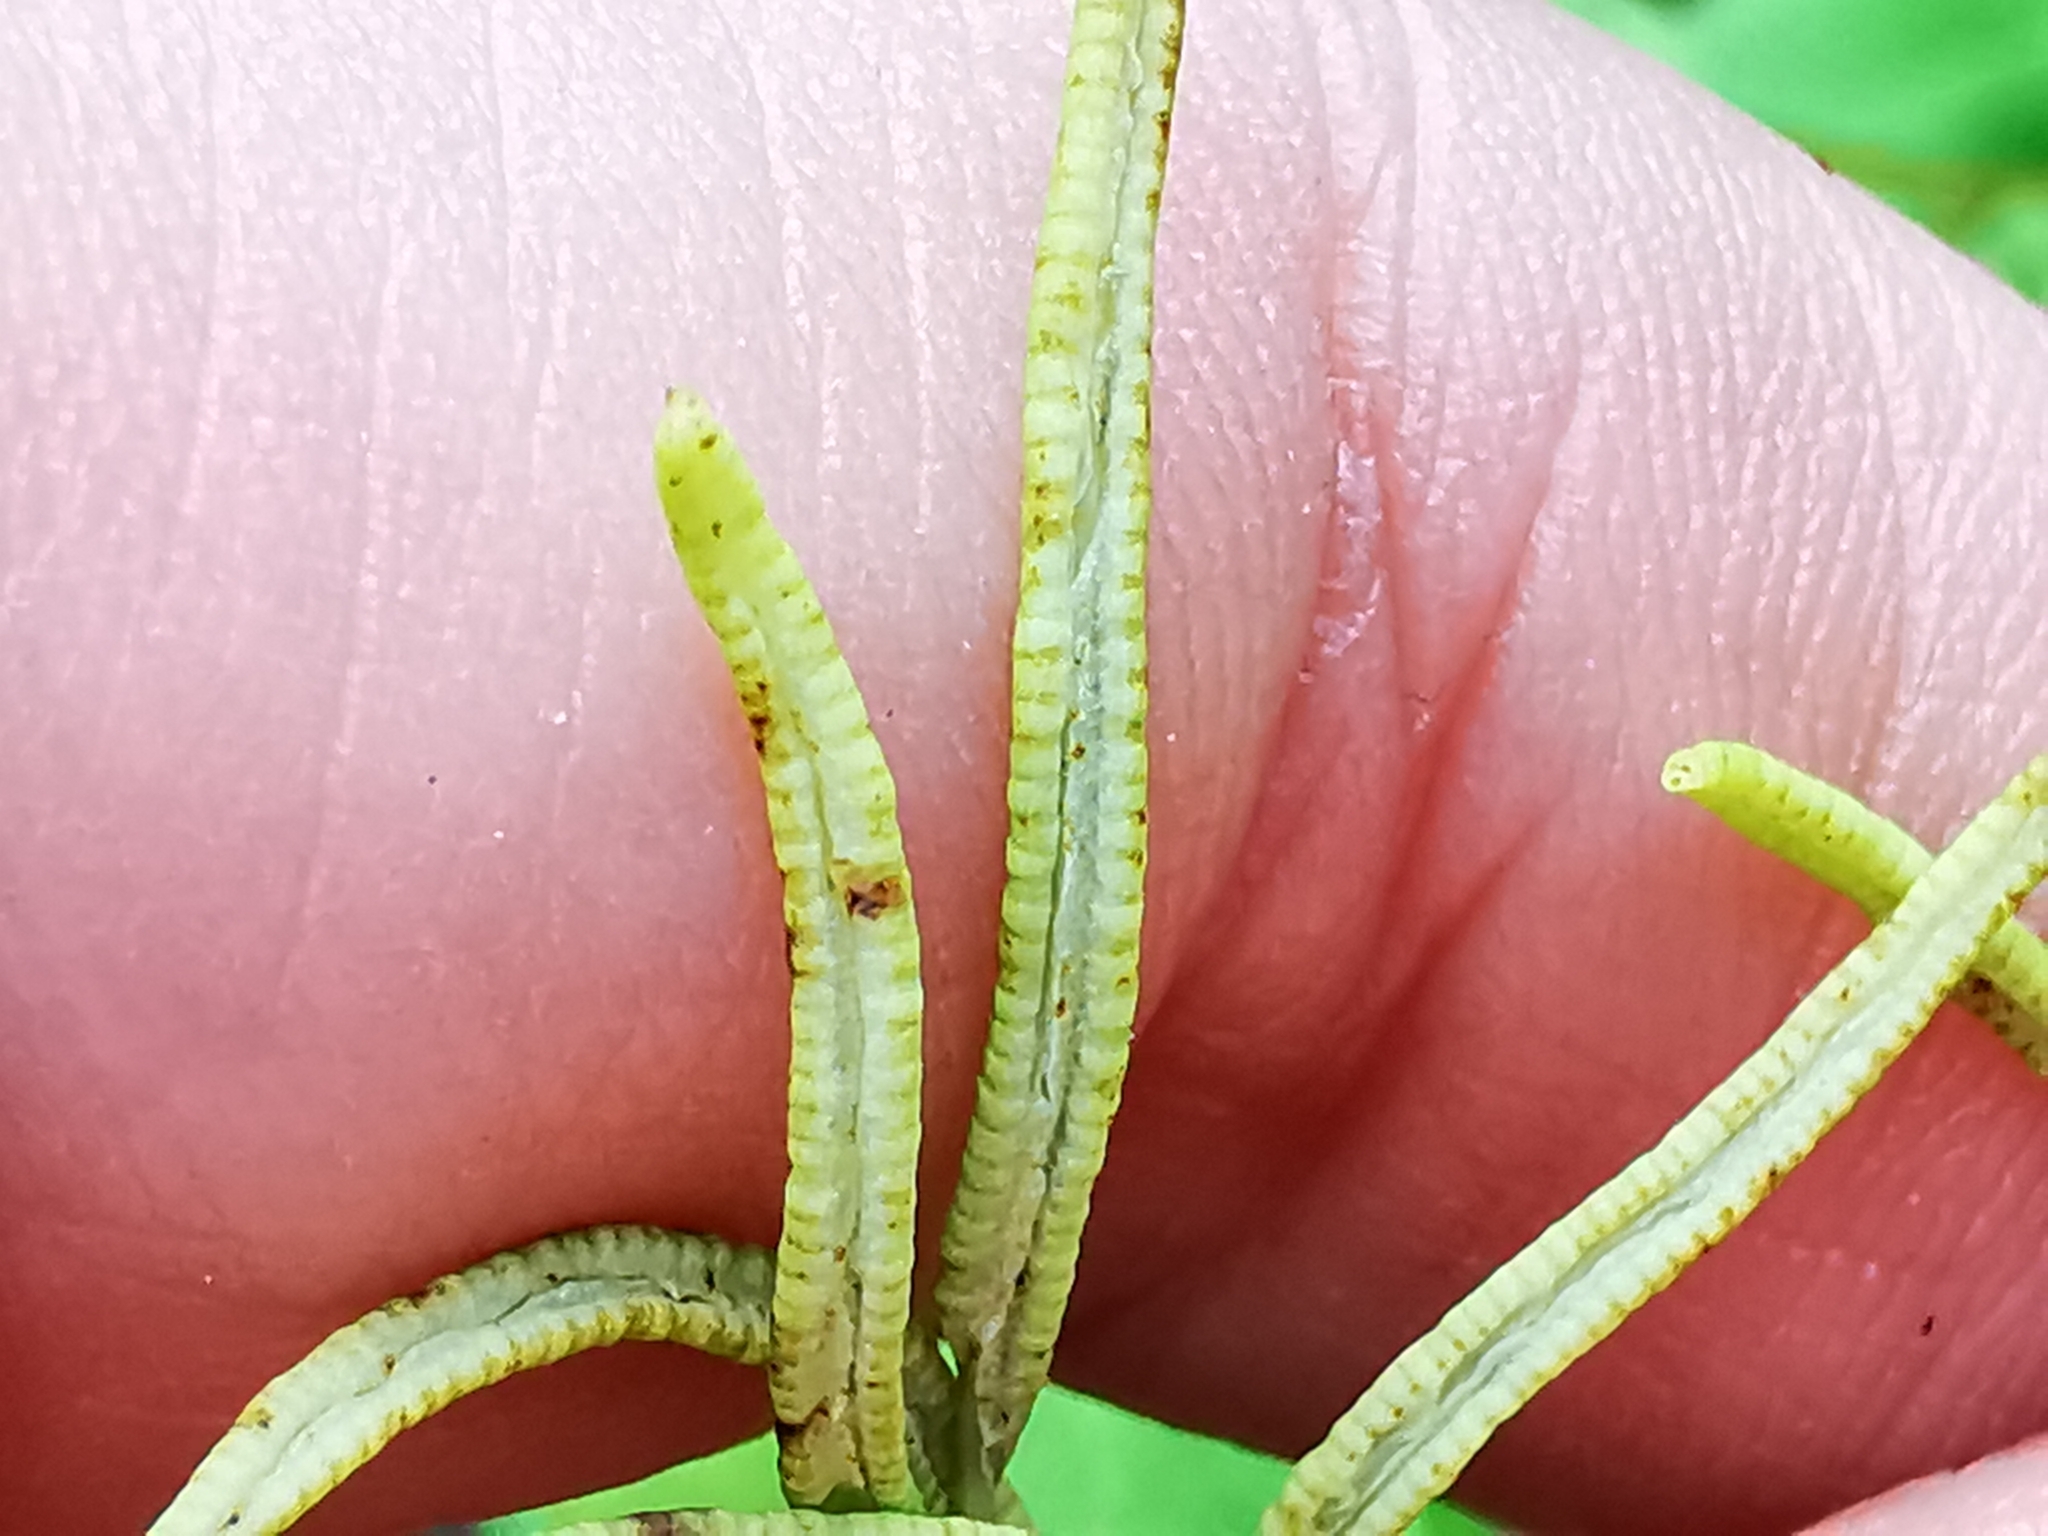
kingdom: Plantae
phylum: Tracheophyta
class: Polypodiopsida
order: Polypodiales
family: Pteridaceae
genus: Llavea
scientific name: Llavea cordifolia
